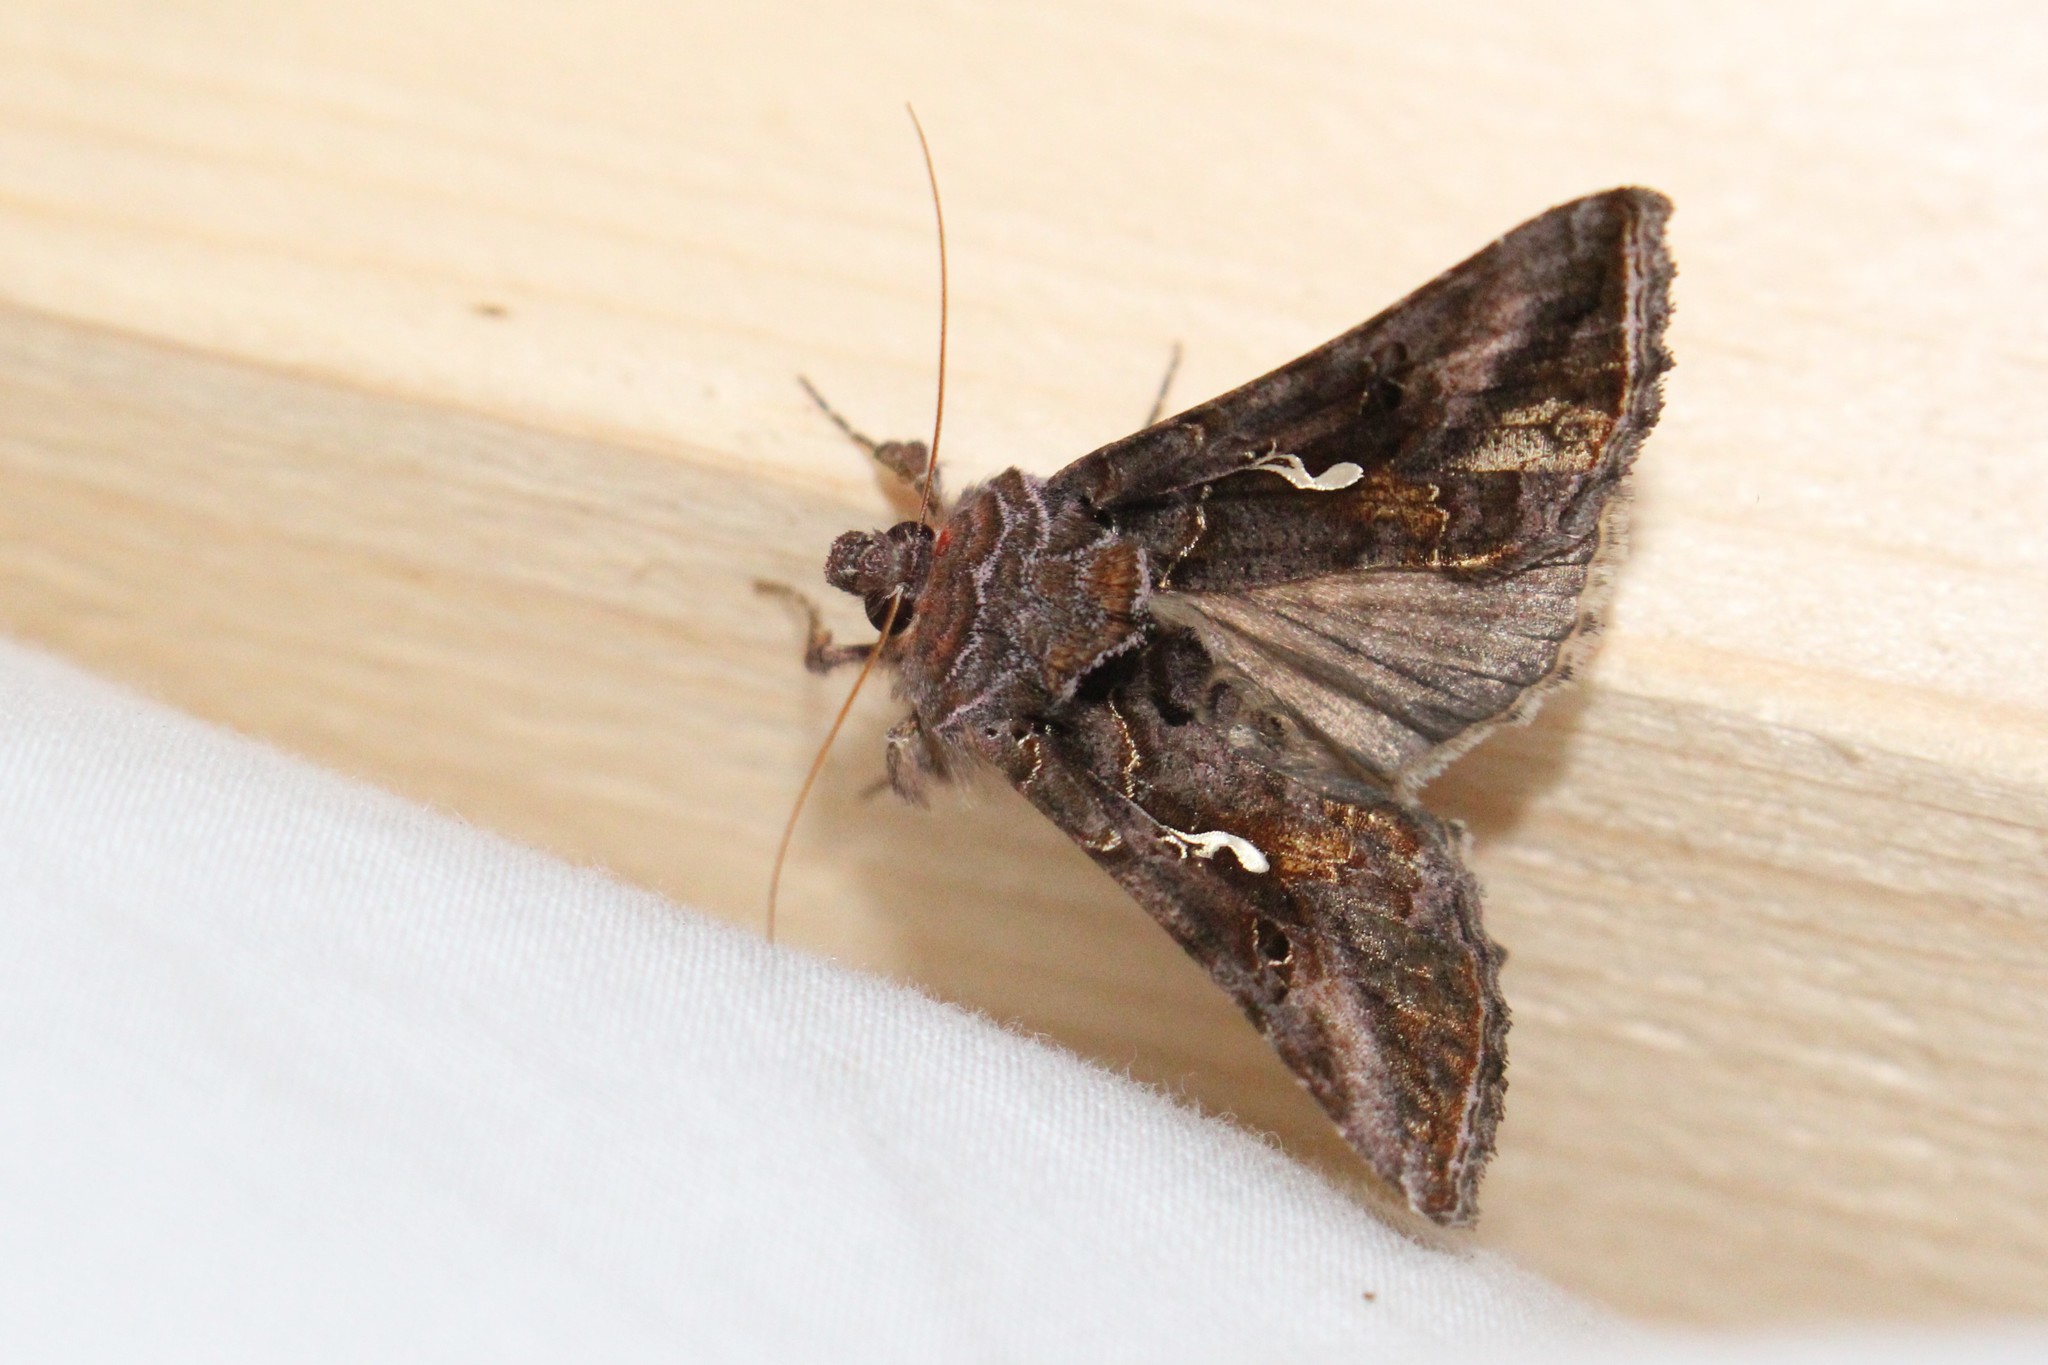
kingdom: Animalia
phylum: Arthropoda
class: Insecta
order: Lepidoptera
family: Noctuidae
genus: Autographa
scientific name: Autographa precationis
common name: Common looper moth
